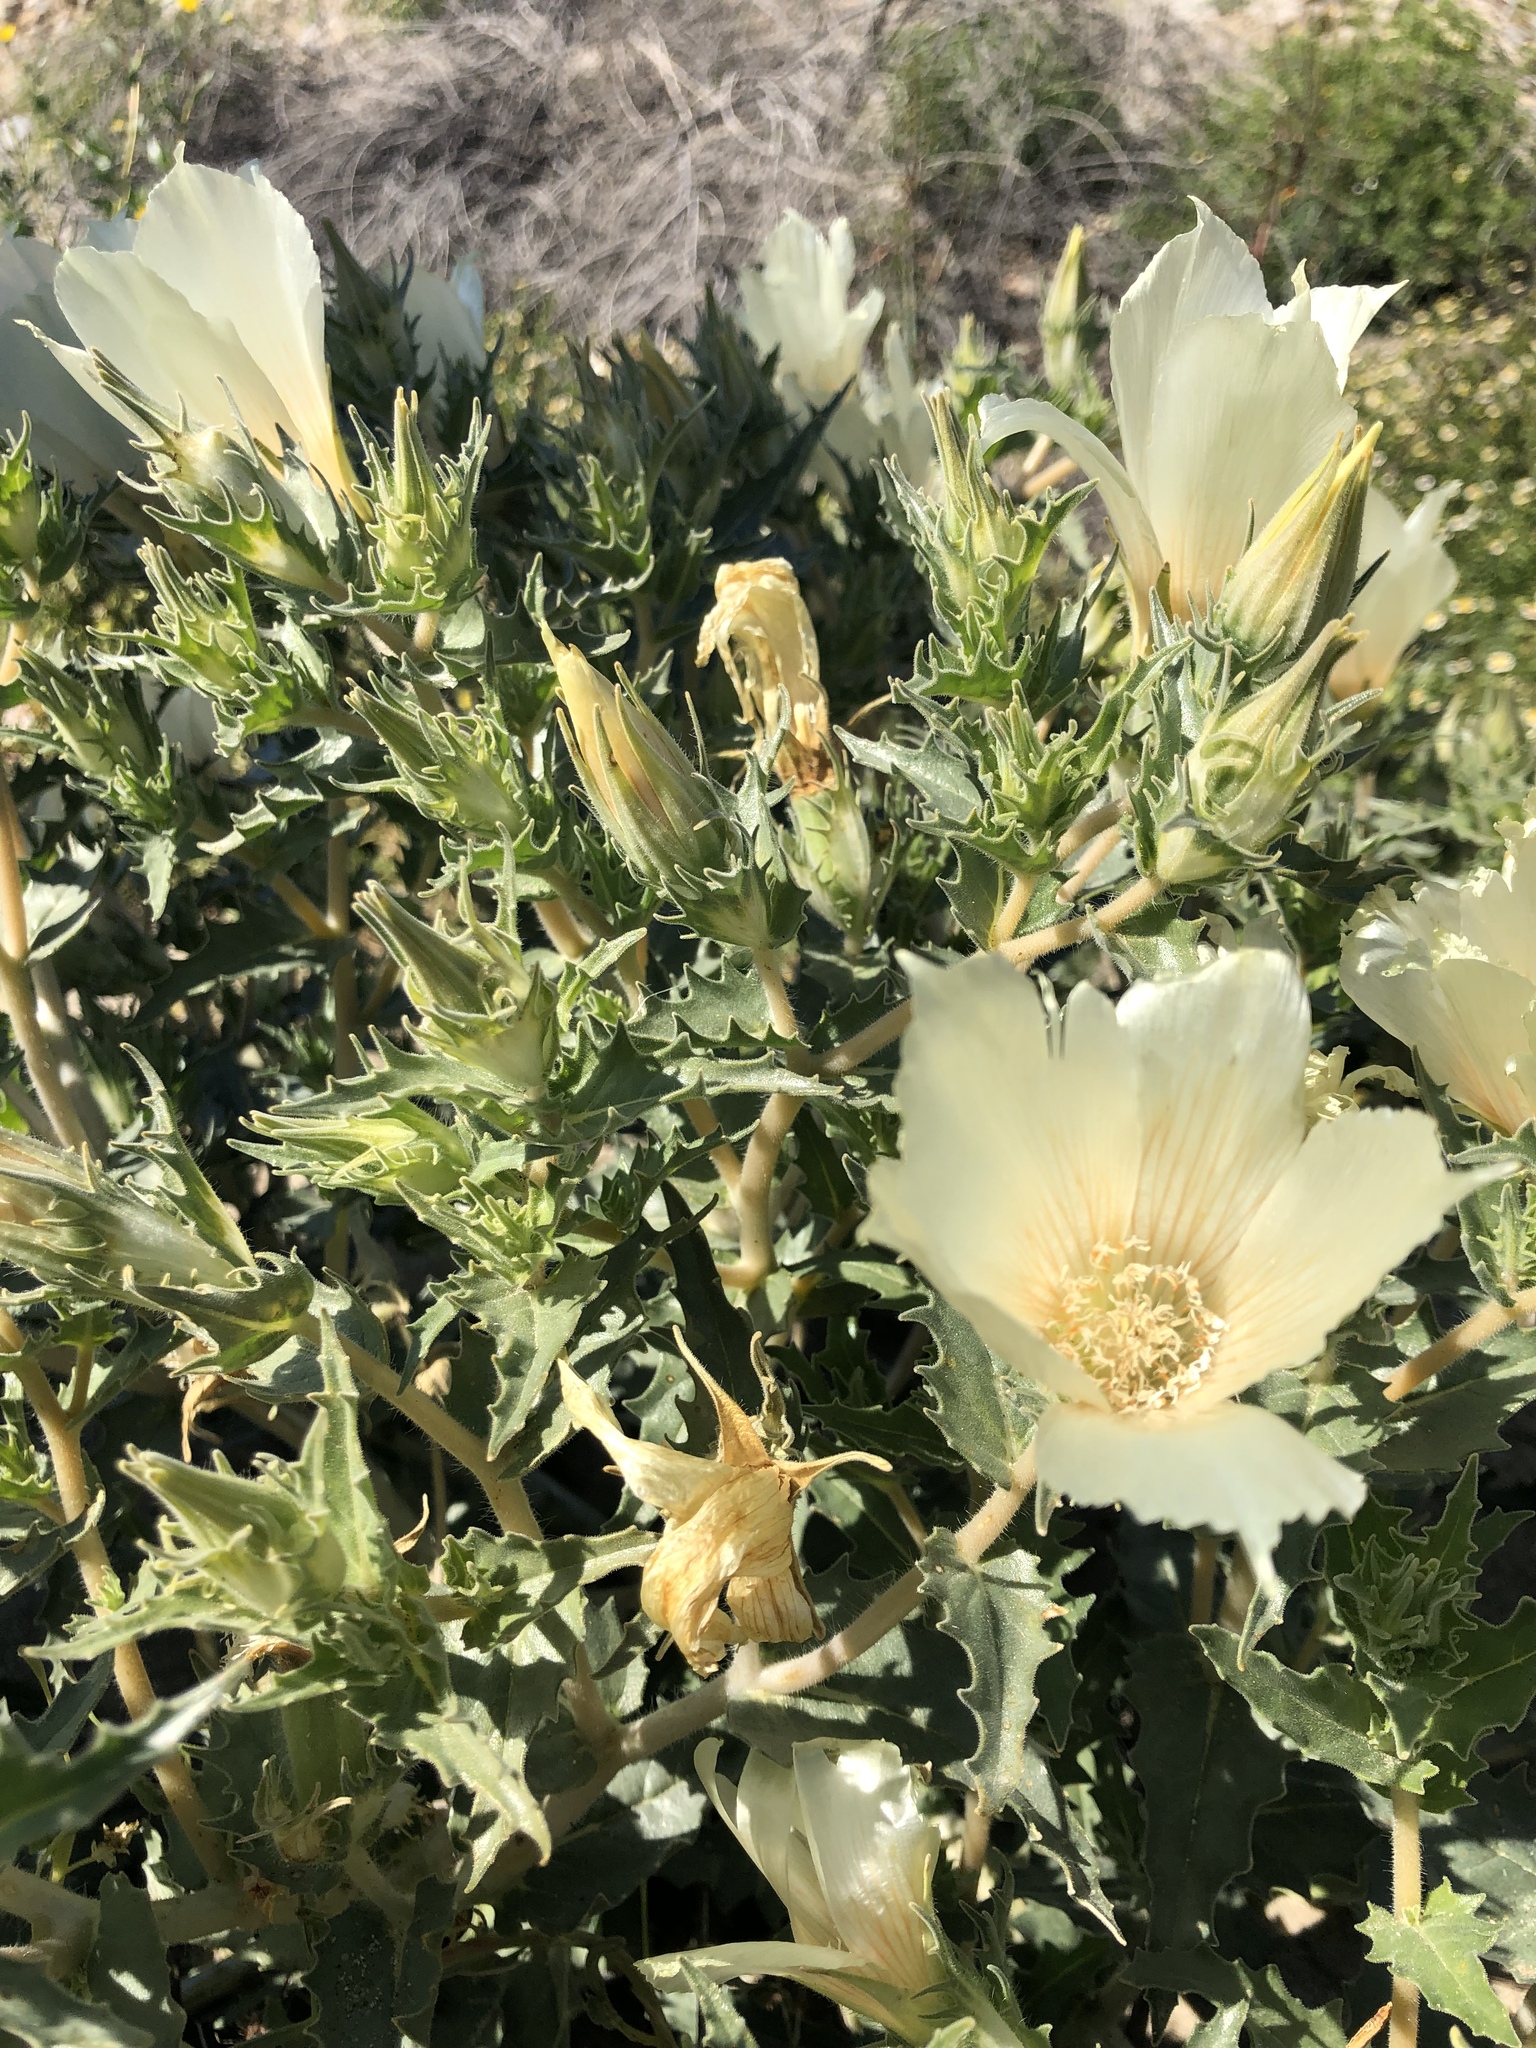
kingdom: Plantae
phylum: Tracheophyta
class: Magnoliopsida
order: Cornales
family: Loasaceae
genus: Mentzelia
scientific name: Mentzelia involucrata
